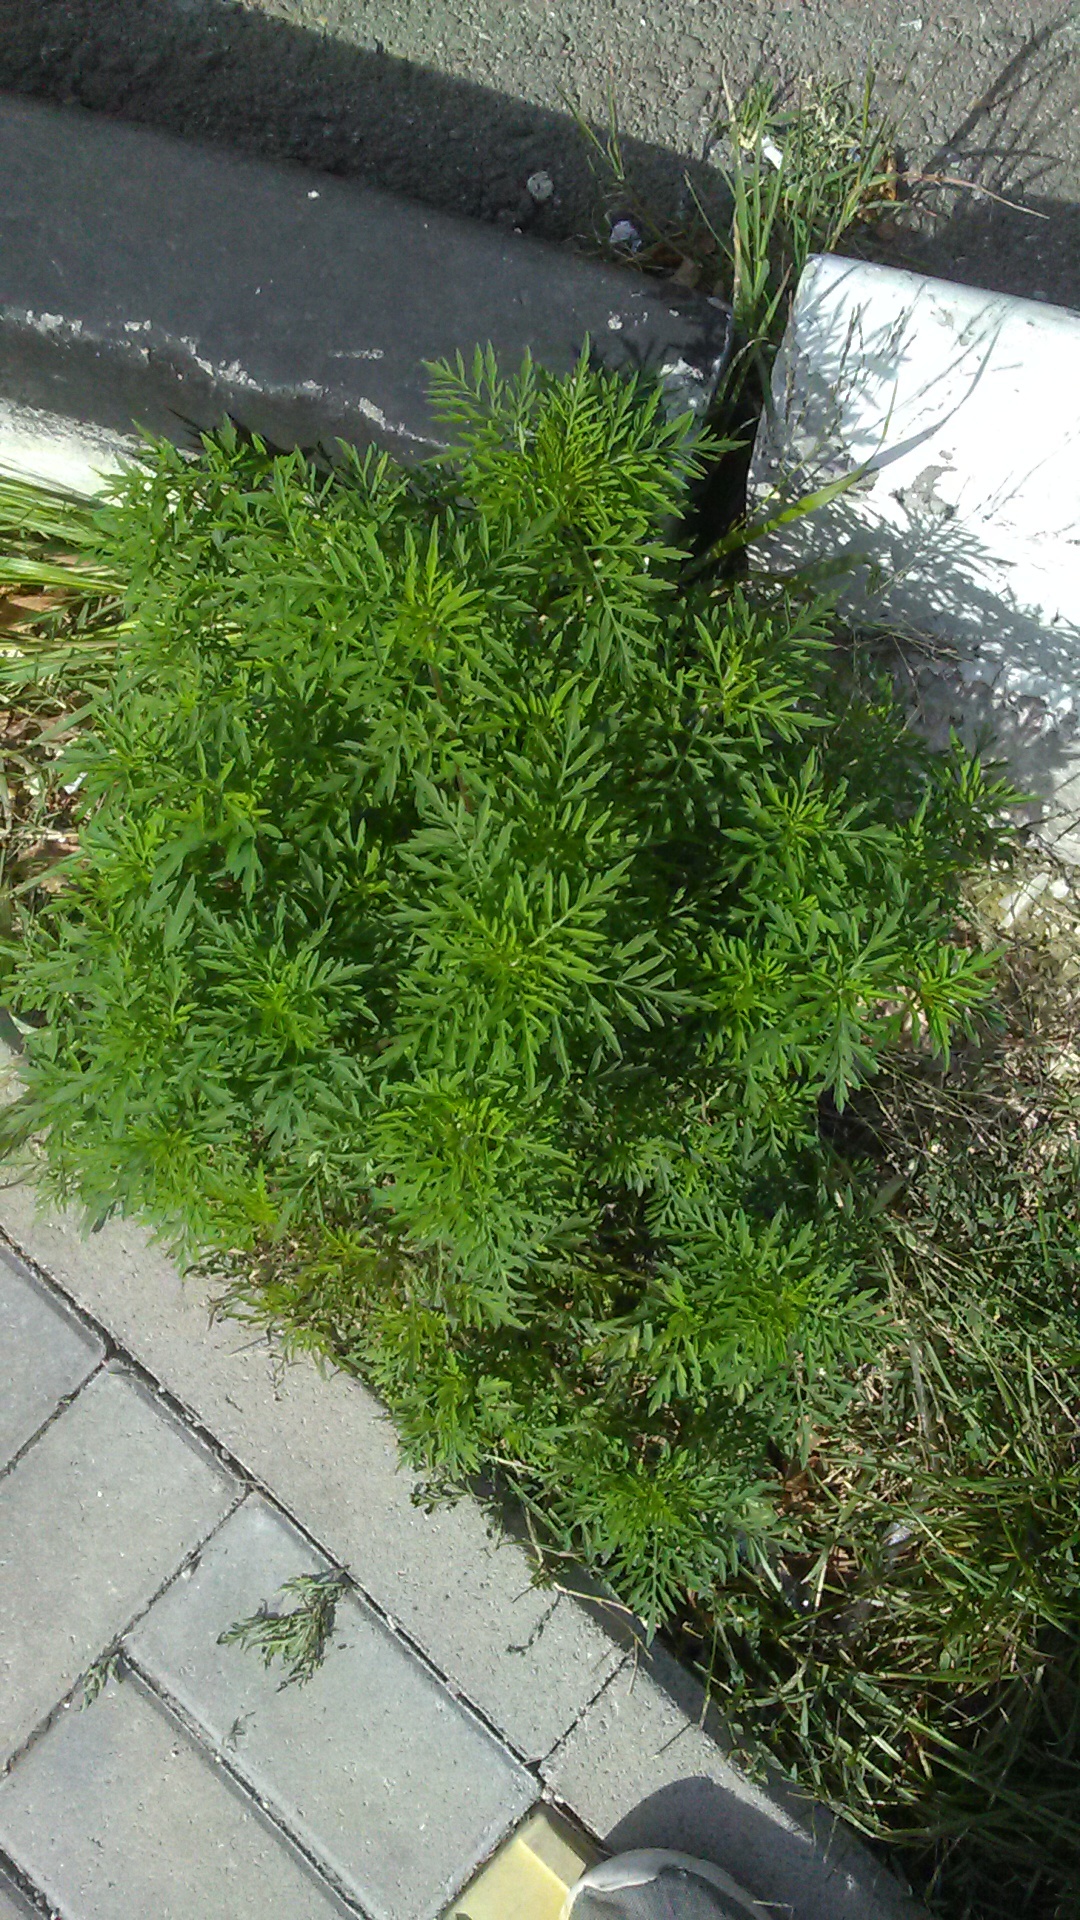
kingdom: Plantae
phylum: Tracheophyta
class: Magnoliopsida
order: Asterales
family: Asteraceae
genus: Ambrosia
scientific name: Ambrosia artemisiifolia
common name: Annual ragweed
